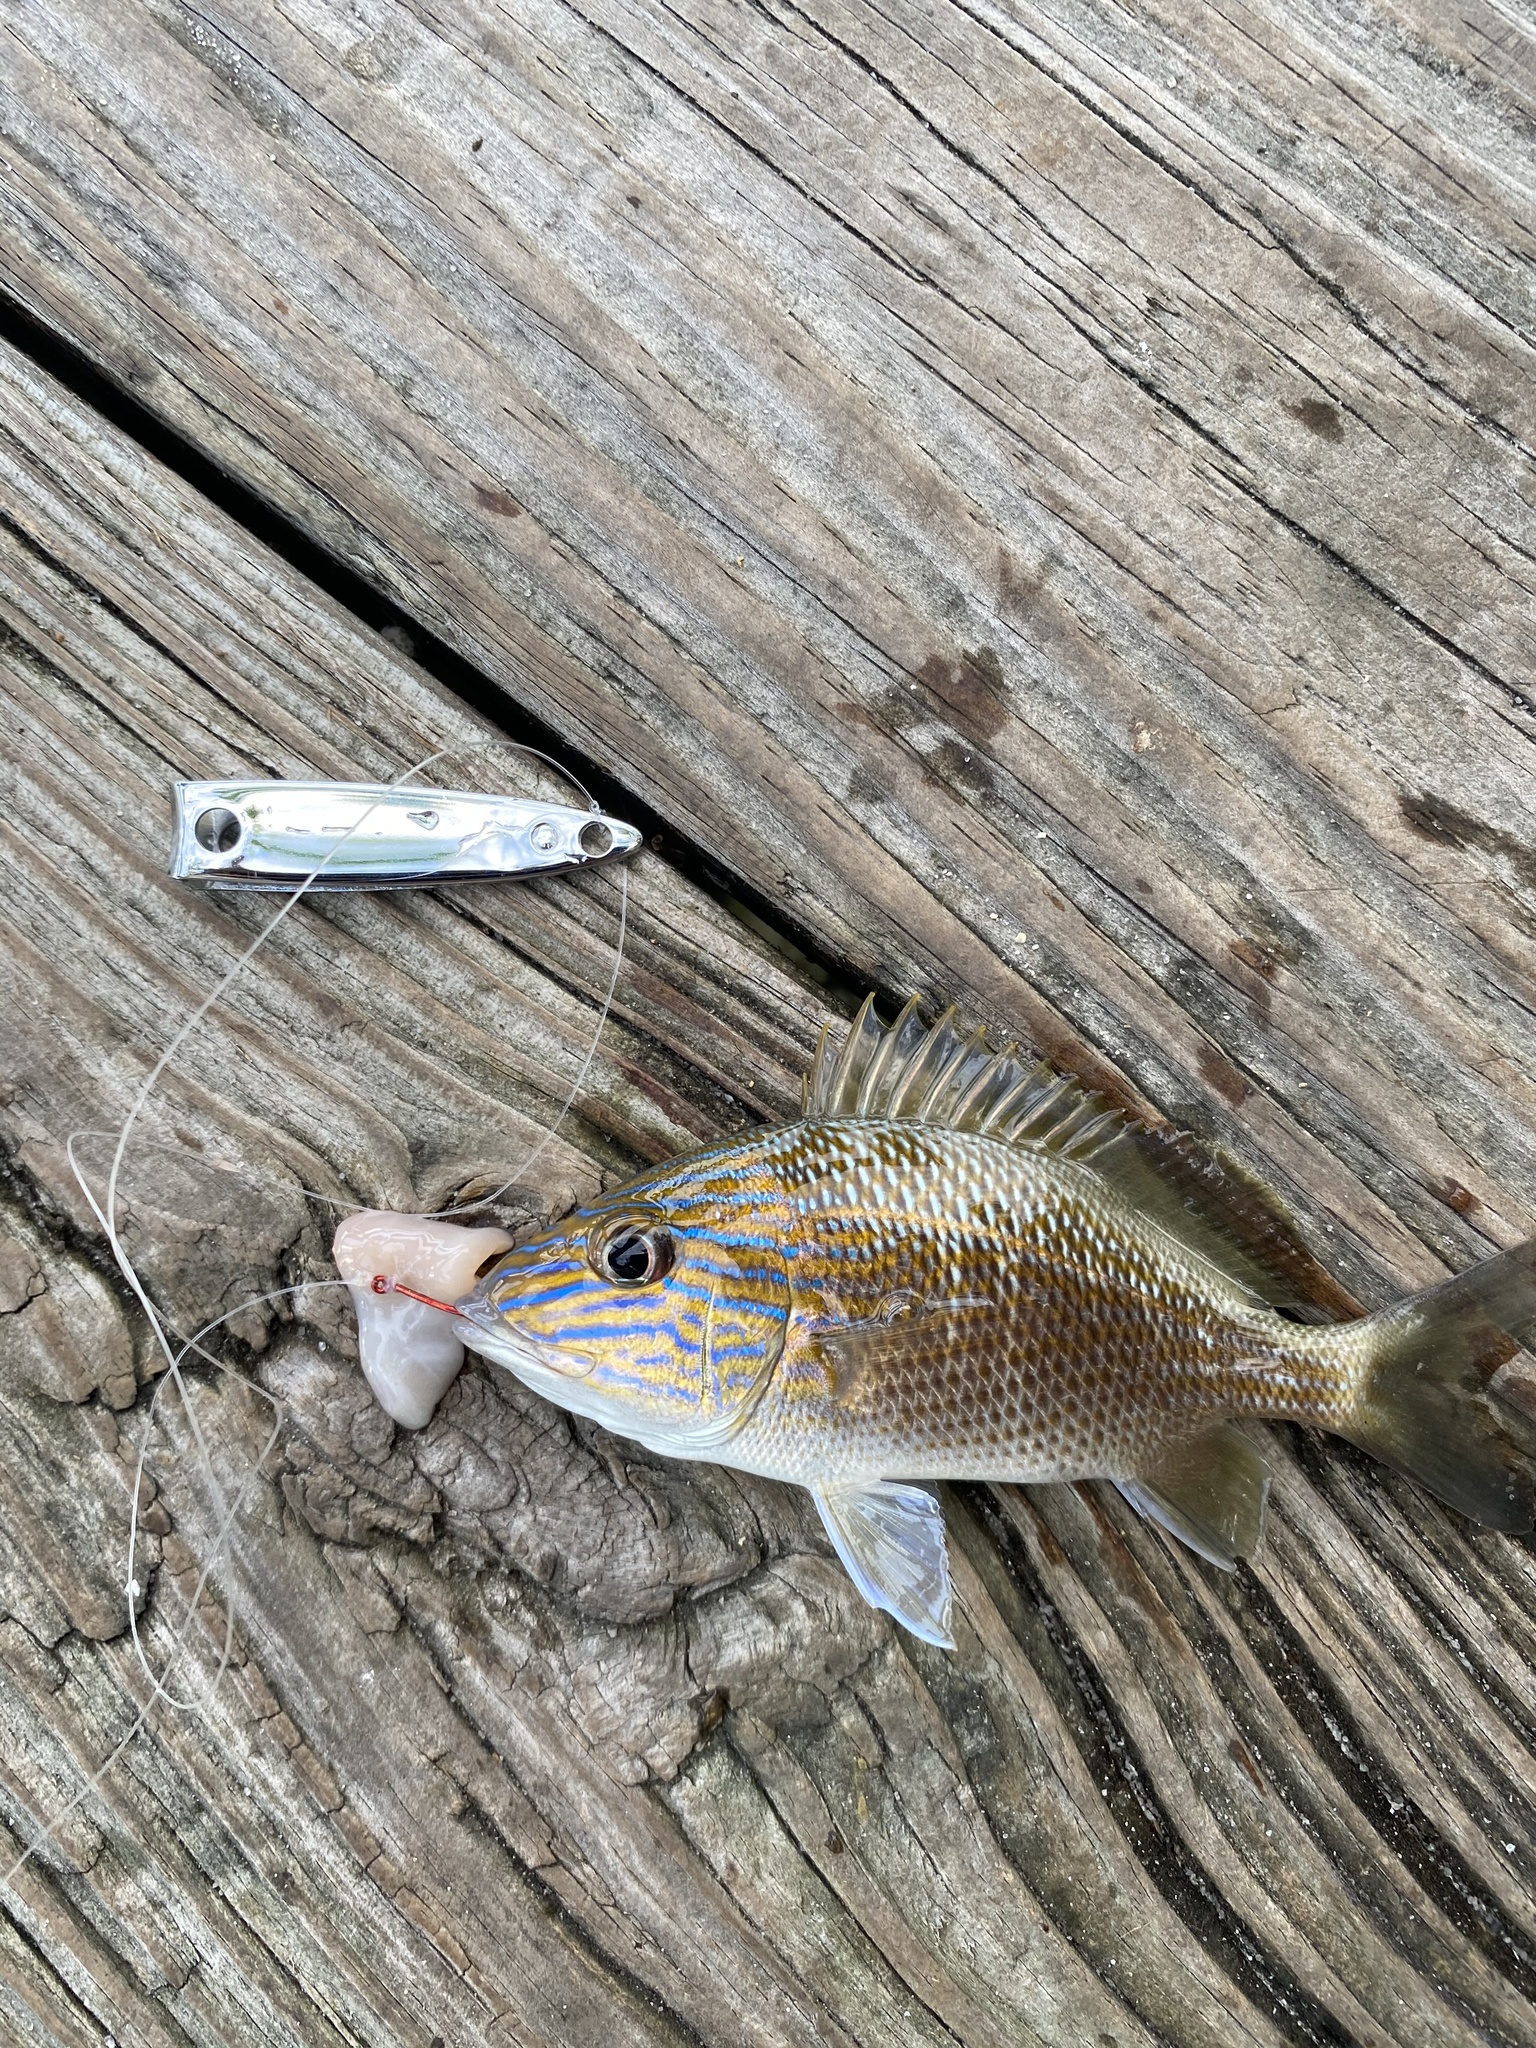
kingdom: Animalia
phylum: Chordata
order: Perciformes
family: Haemulidae
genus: Haemulon
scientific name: Haemulon plumierii
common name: White grunt
